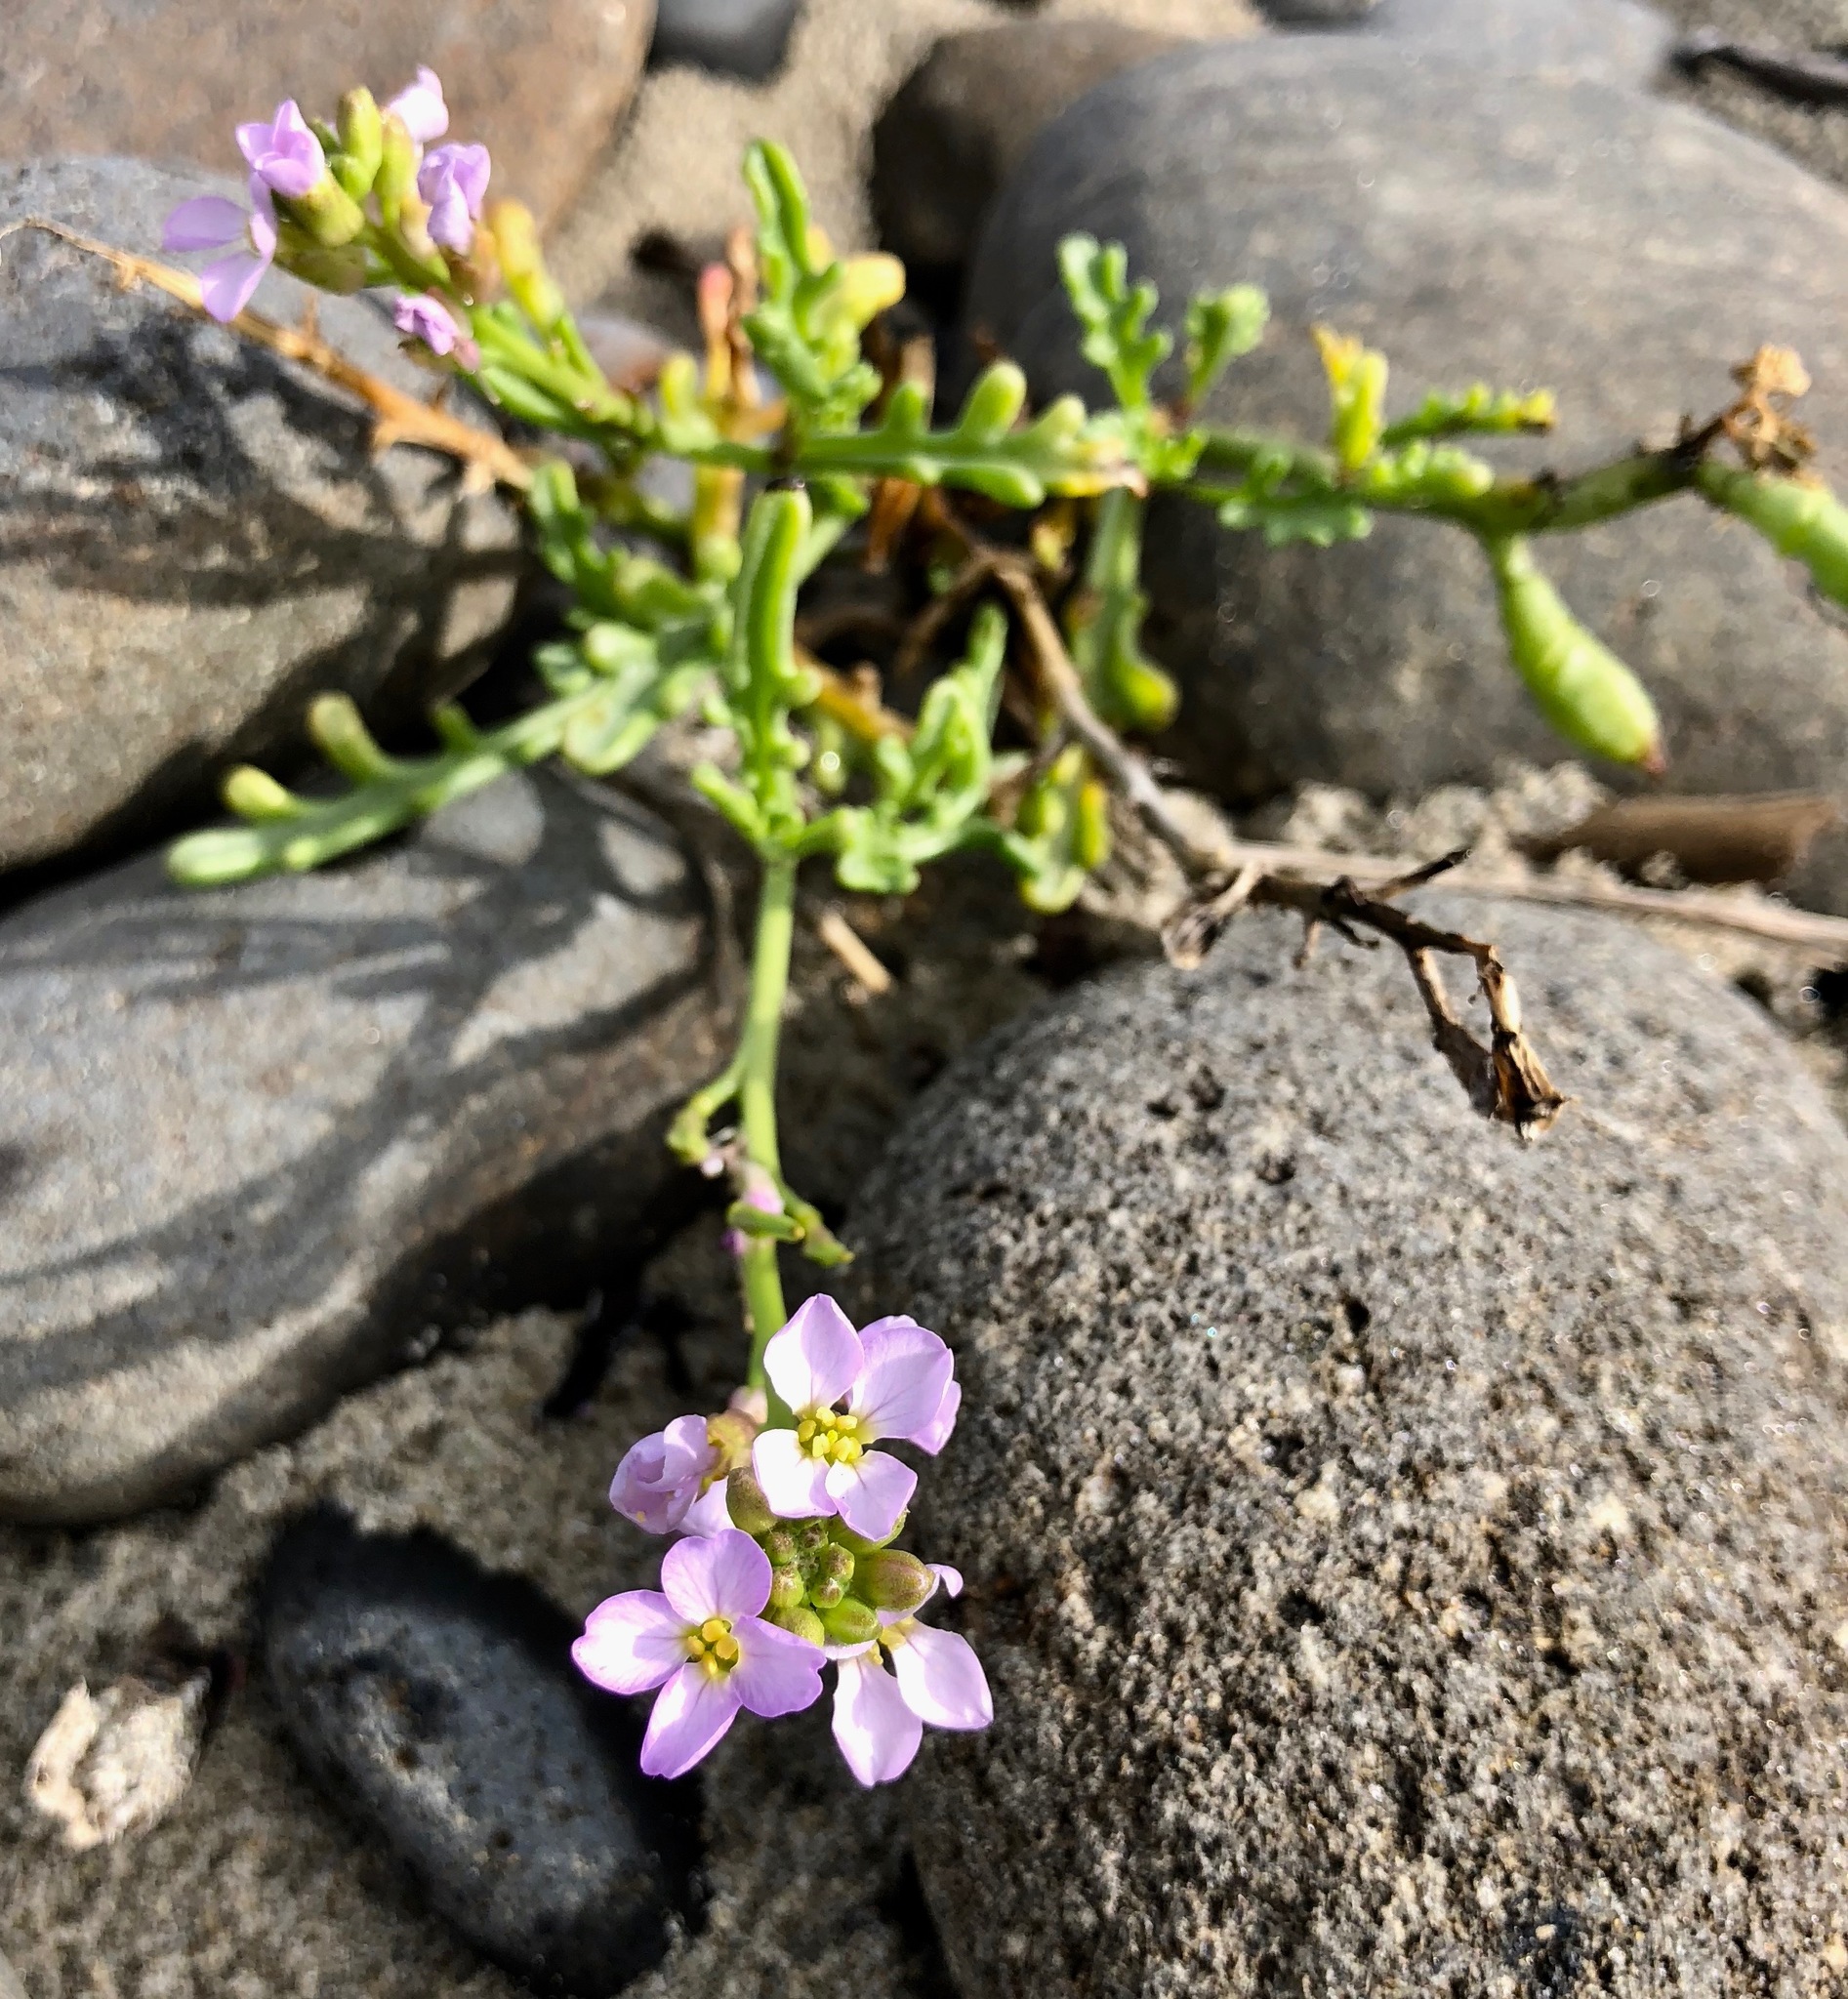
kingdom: Plantae
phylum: Tracheophyta
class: Magnoliopsida
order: Brassicales
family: Brassicaceae
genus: Cakile
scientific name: Cakile maritima
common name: Sea rocket
